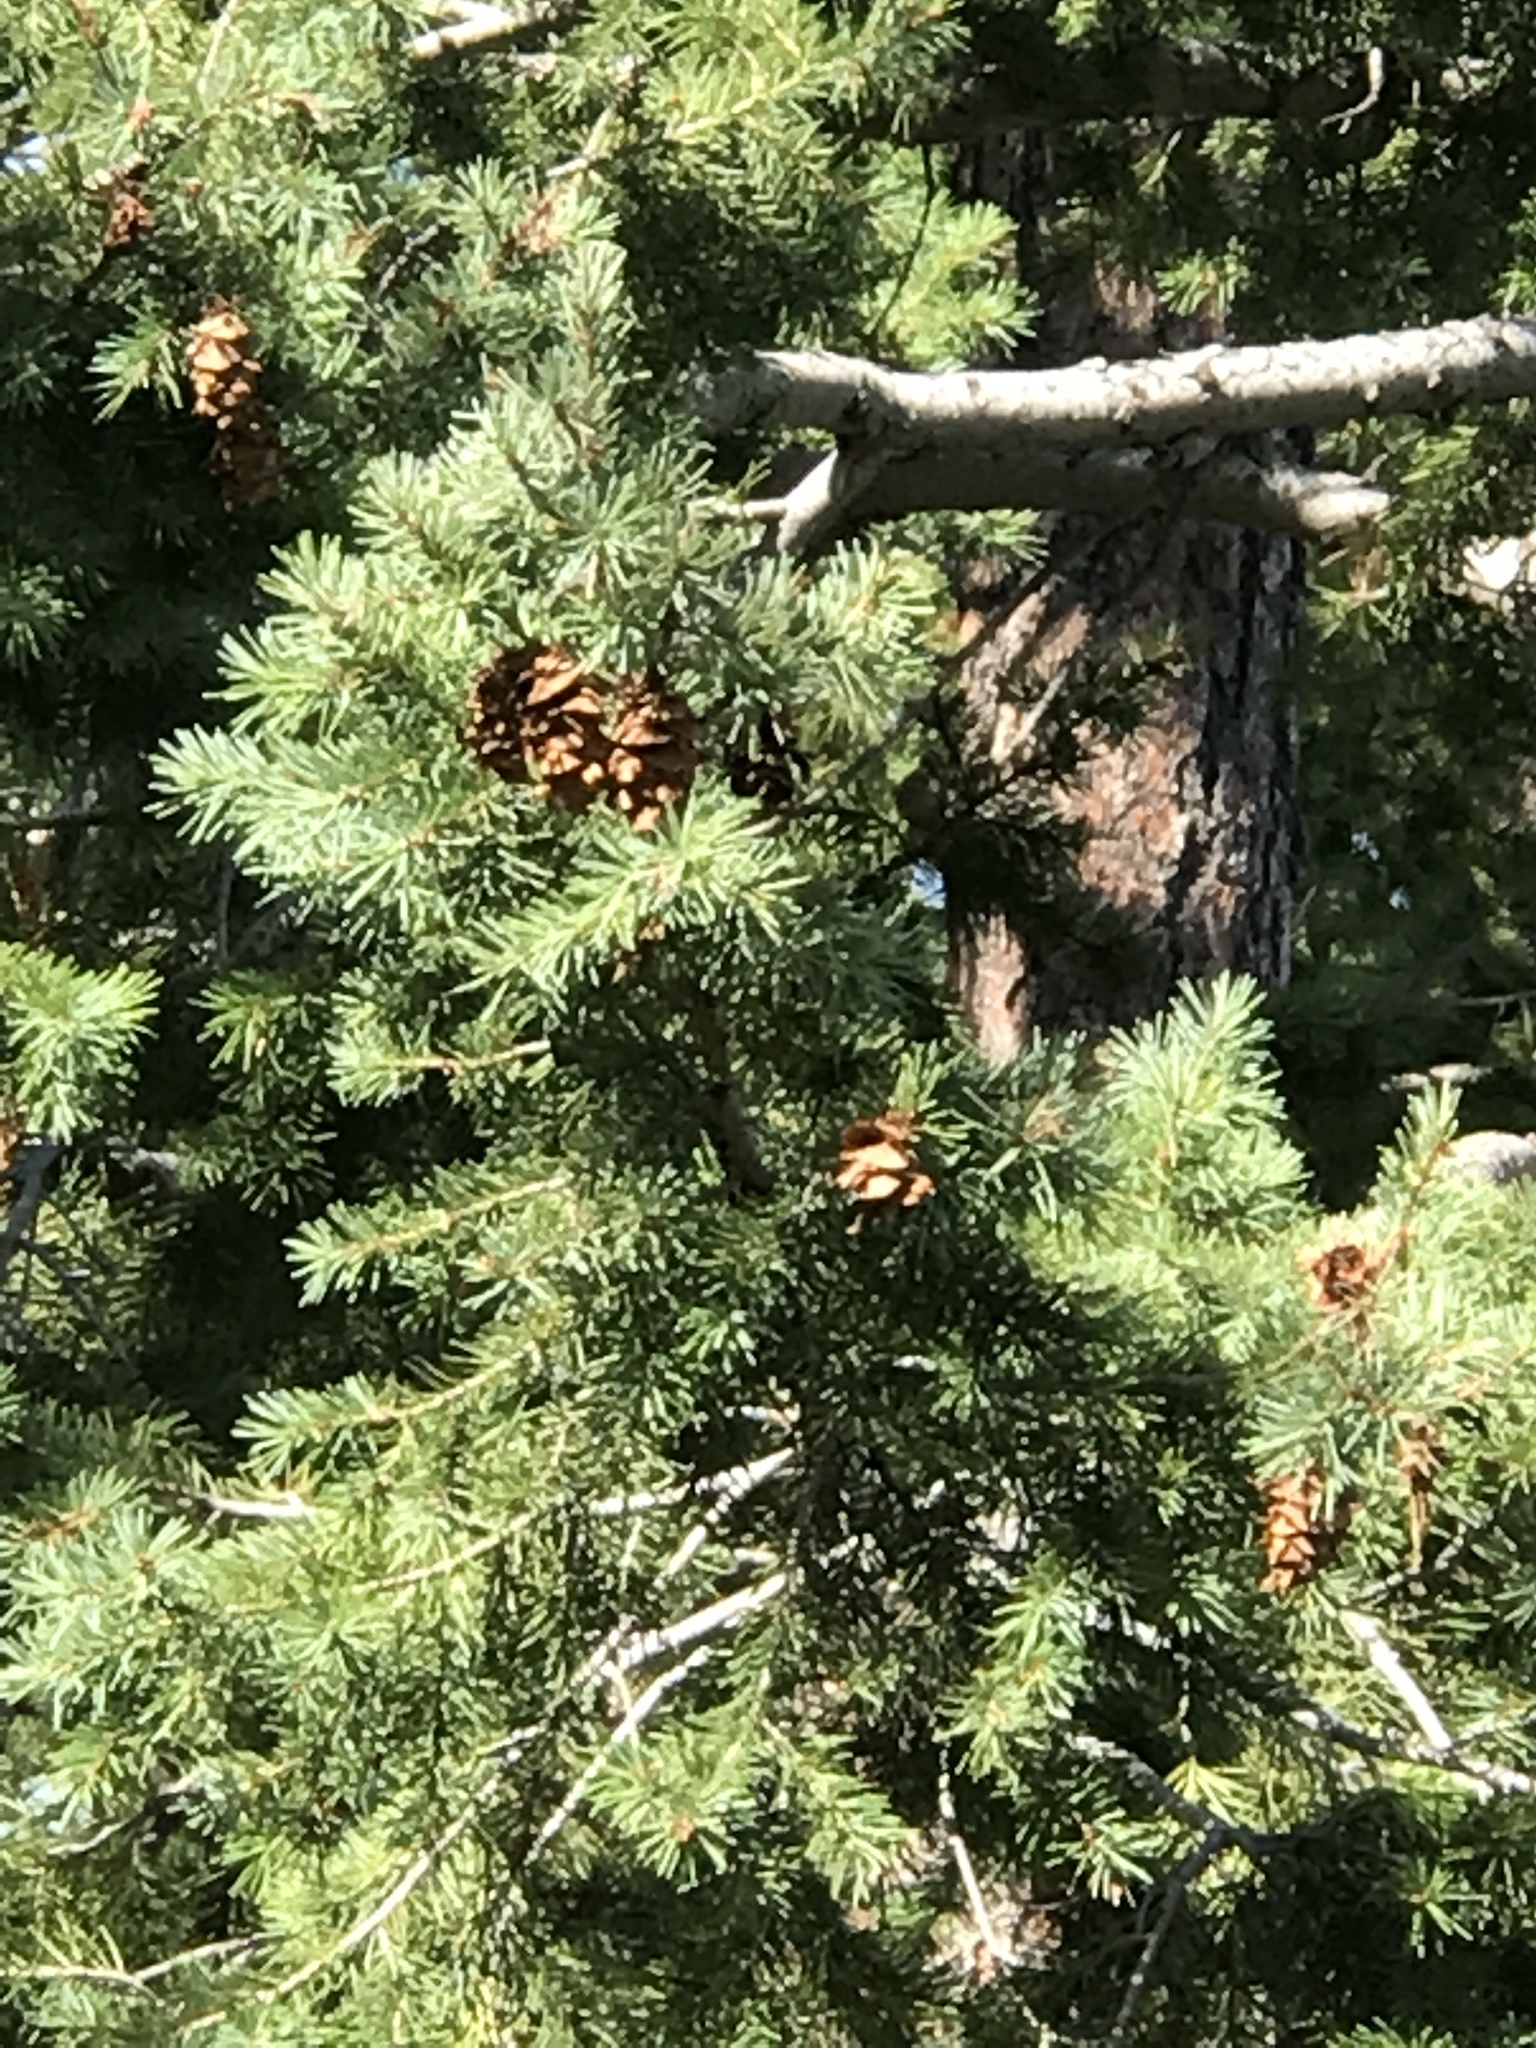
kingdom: Plantae
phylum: Tracheophyta
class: Pinopsida
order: Pinales
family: Pinaceae
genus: Pseudotsuga
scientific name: Pseudotsuga menziesii
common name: Douglas fir
